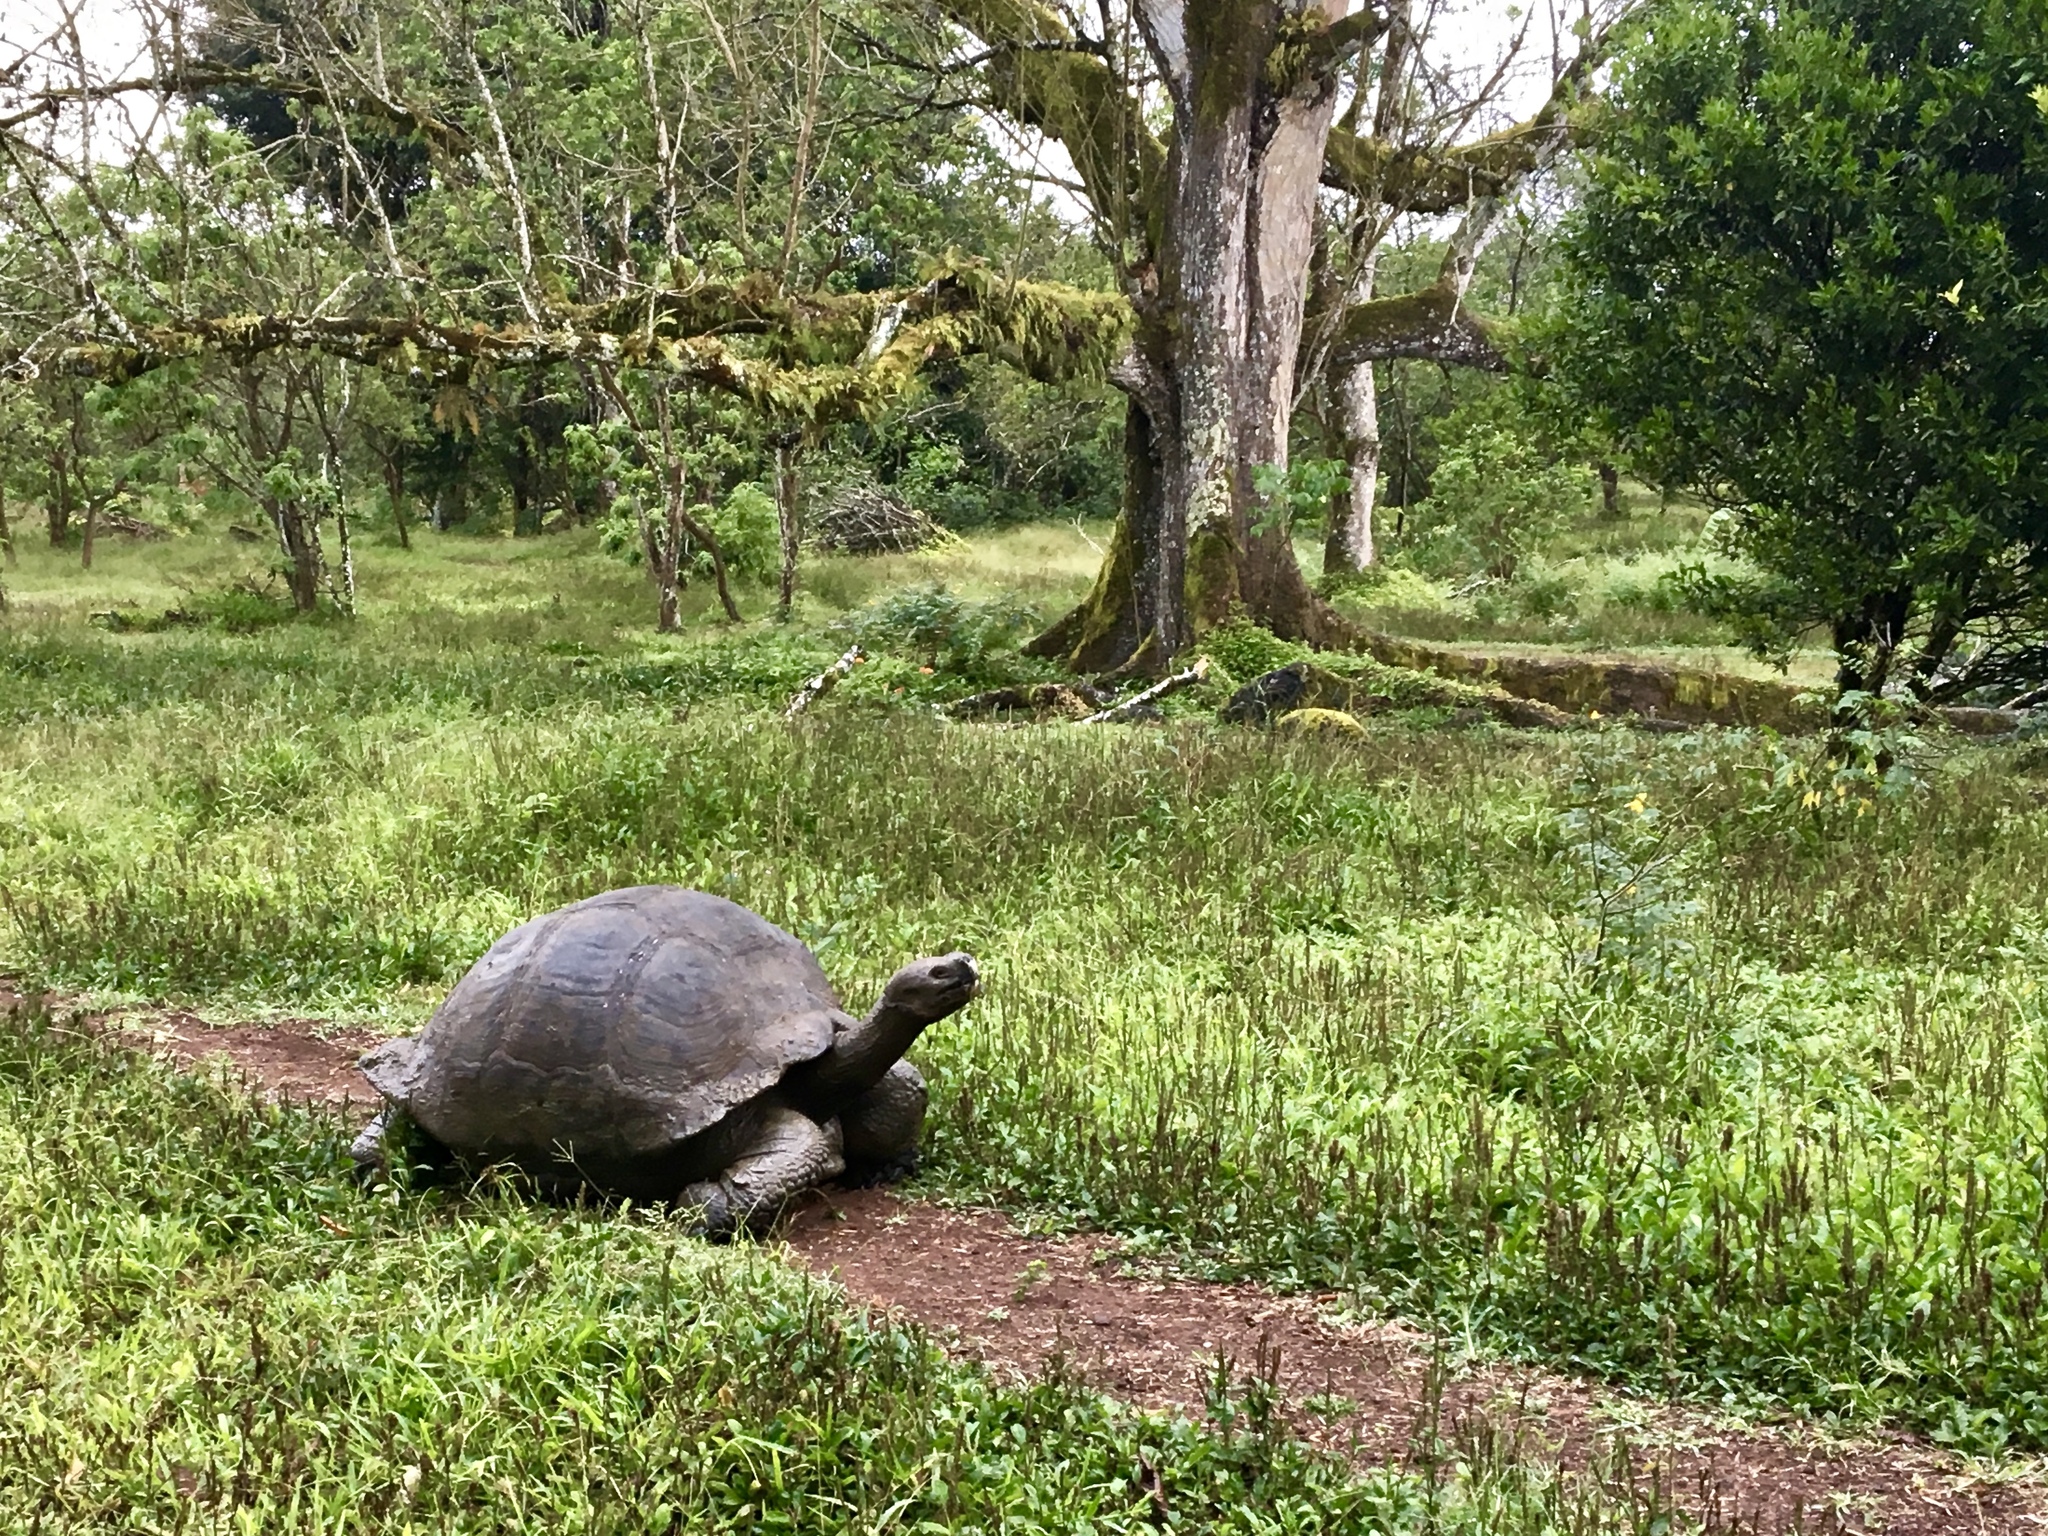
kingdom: Animalia
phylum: Chordata
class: Testudines
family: Testudinidae
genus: Chelonoidis
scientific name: Chelonoidis porteri
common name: Indefatigable island giant tortoise
